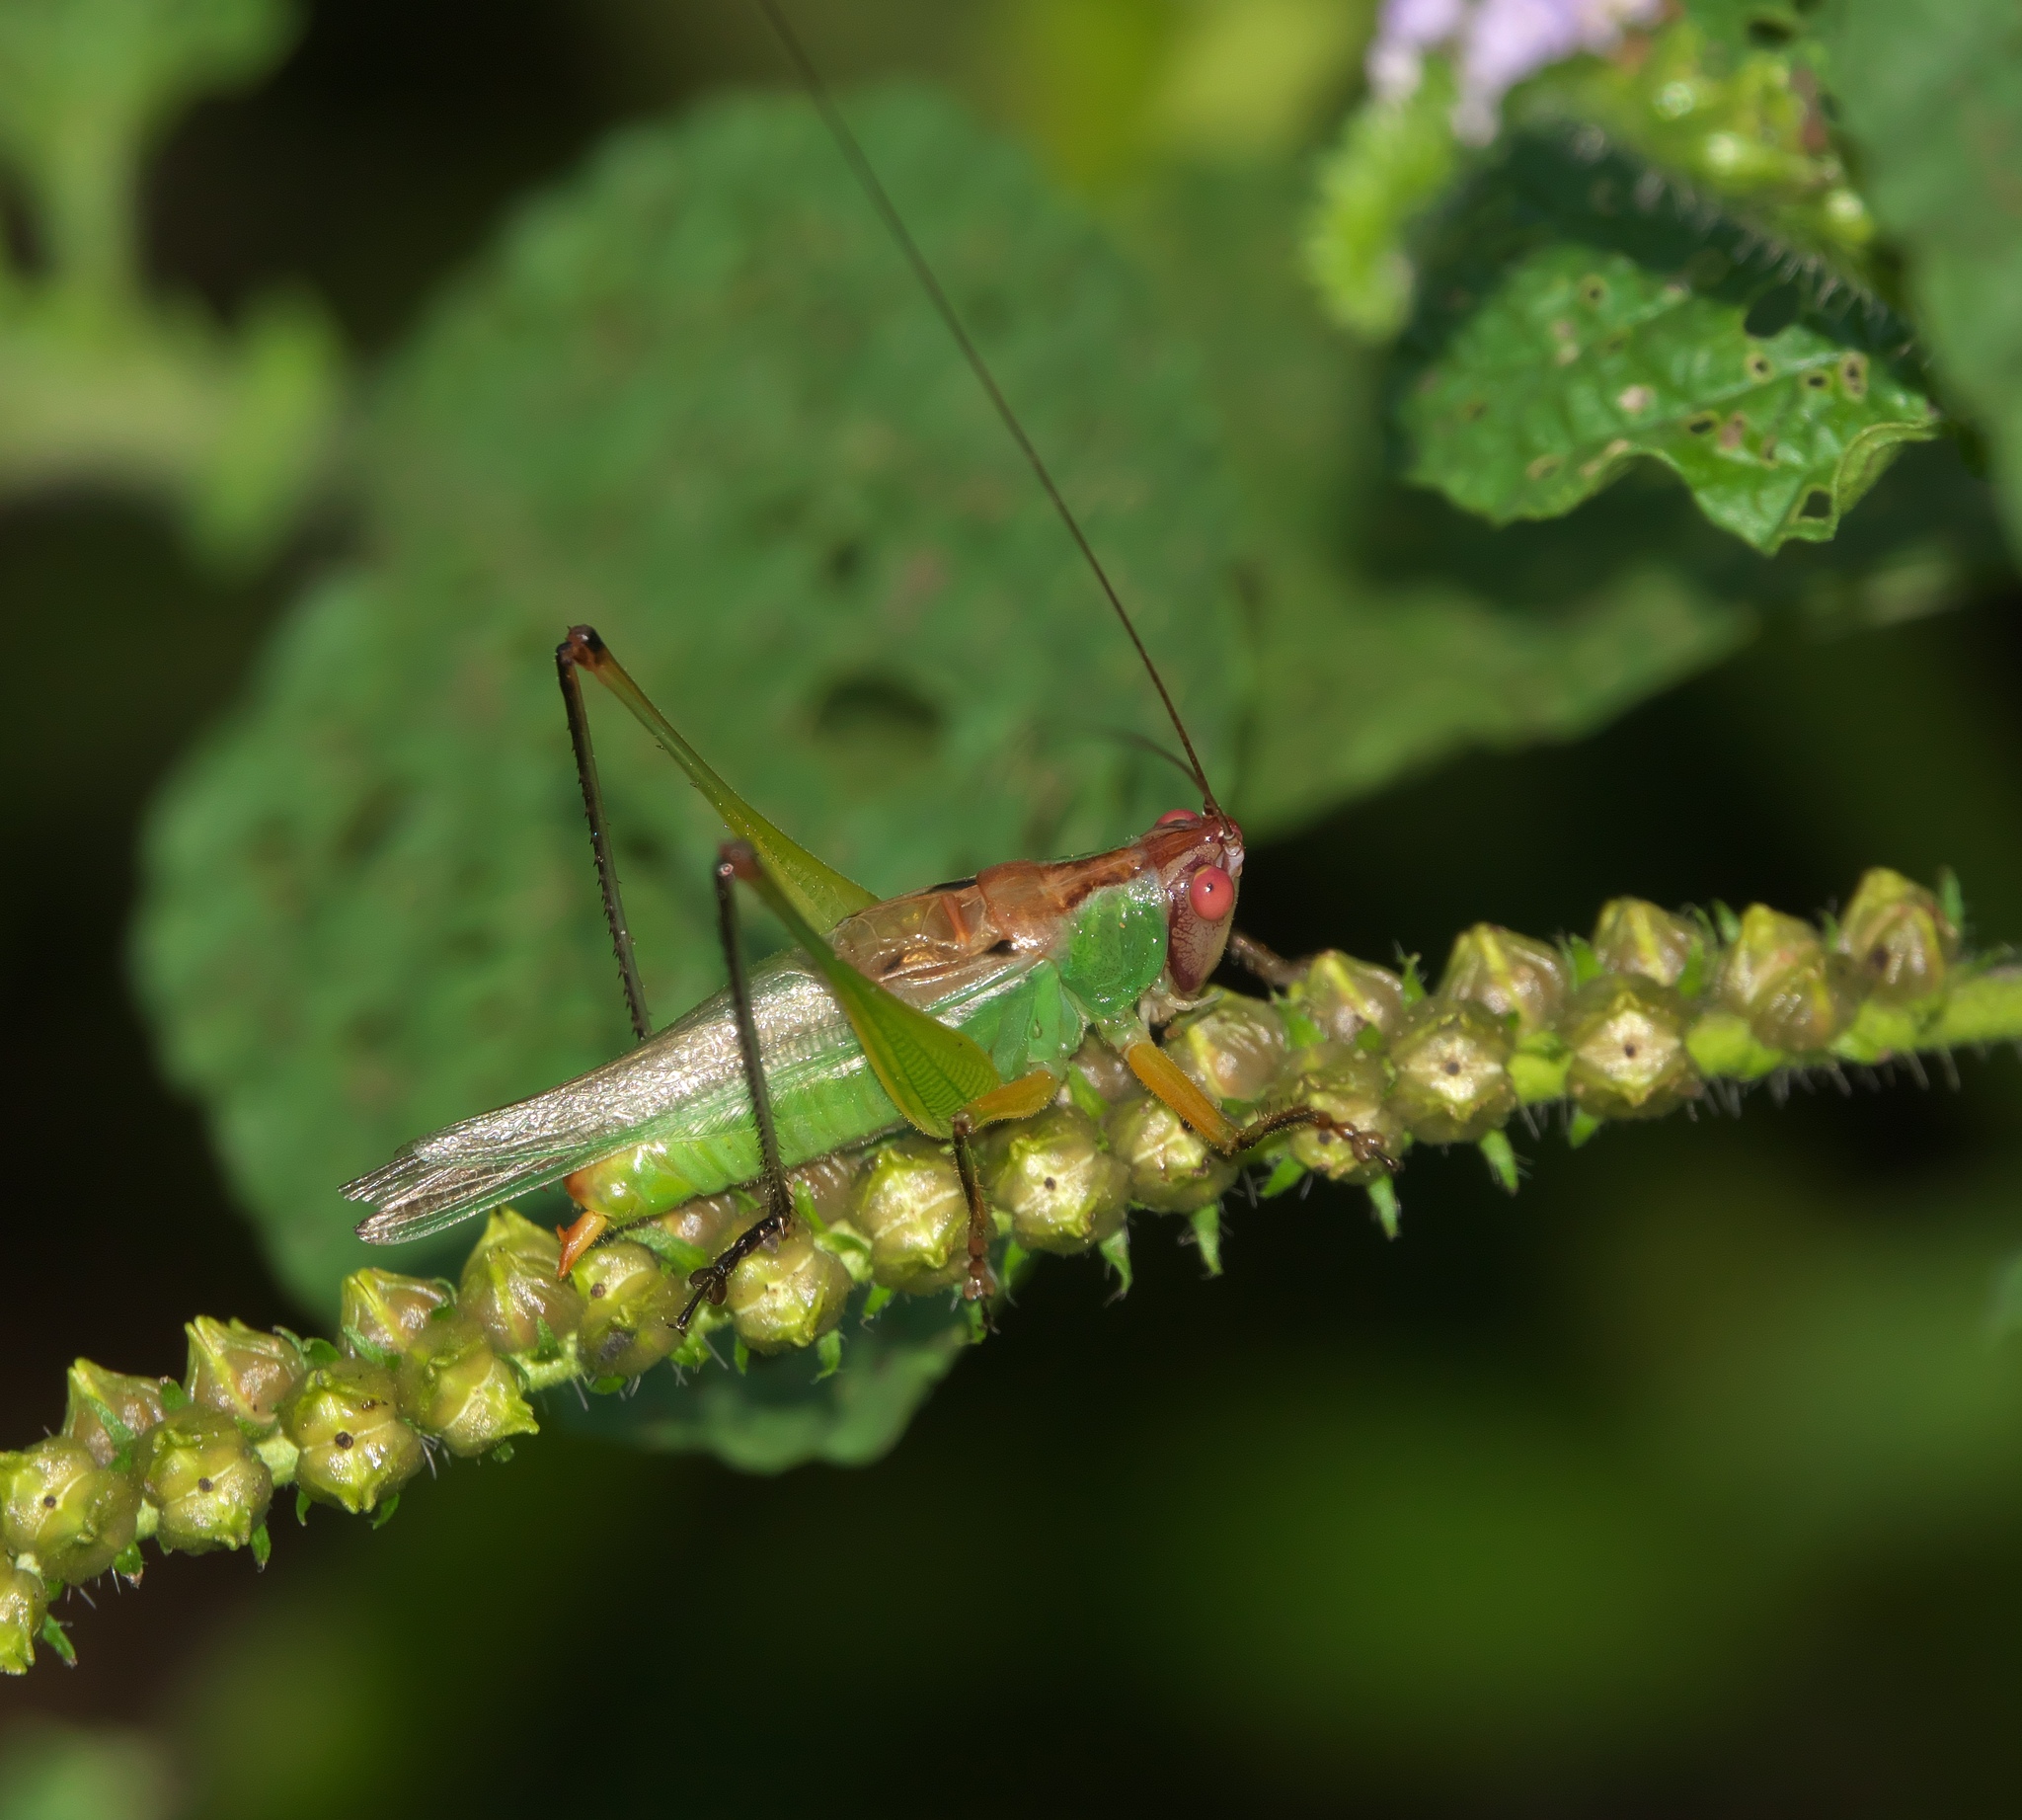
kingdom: Animalia
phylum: Arthropoda
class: Insecta
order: Orthoptera
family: Tettigoniidae
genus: Orchelimum
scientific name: Orchelimum nigripes
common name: Black-legged meadow katydid
